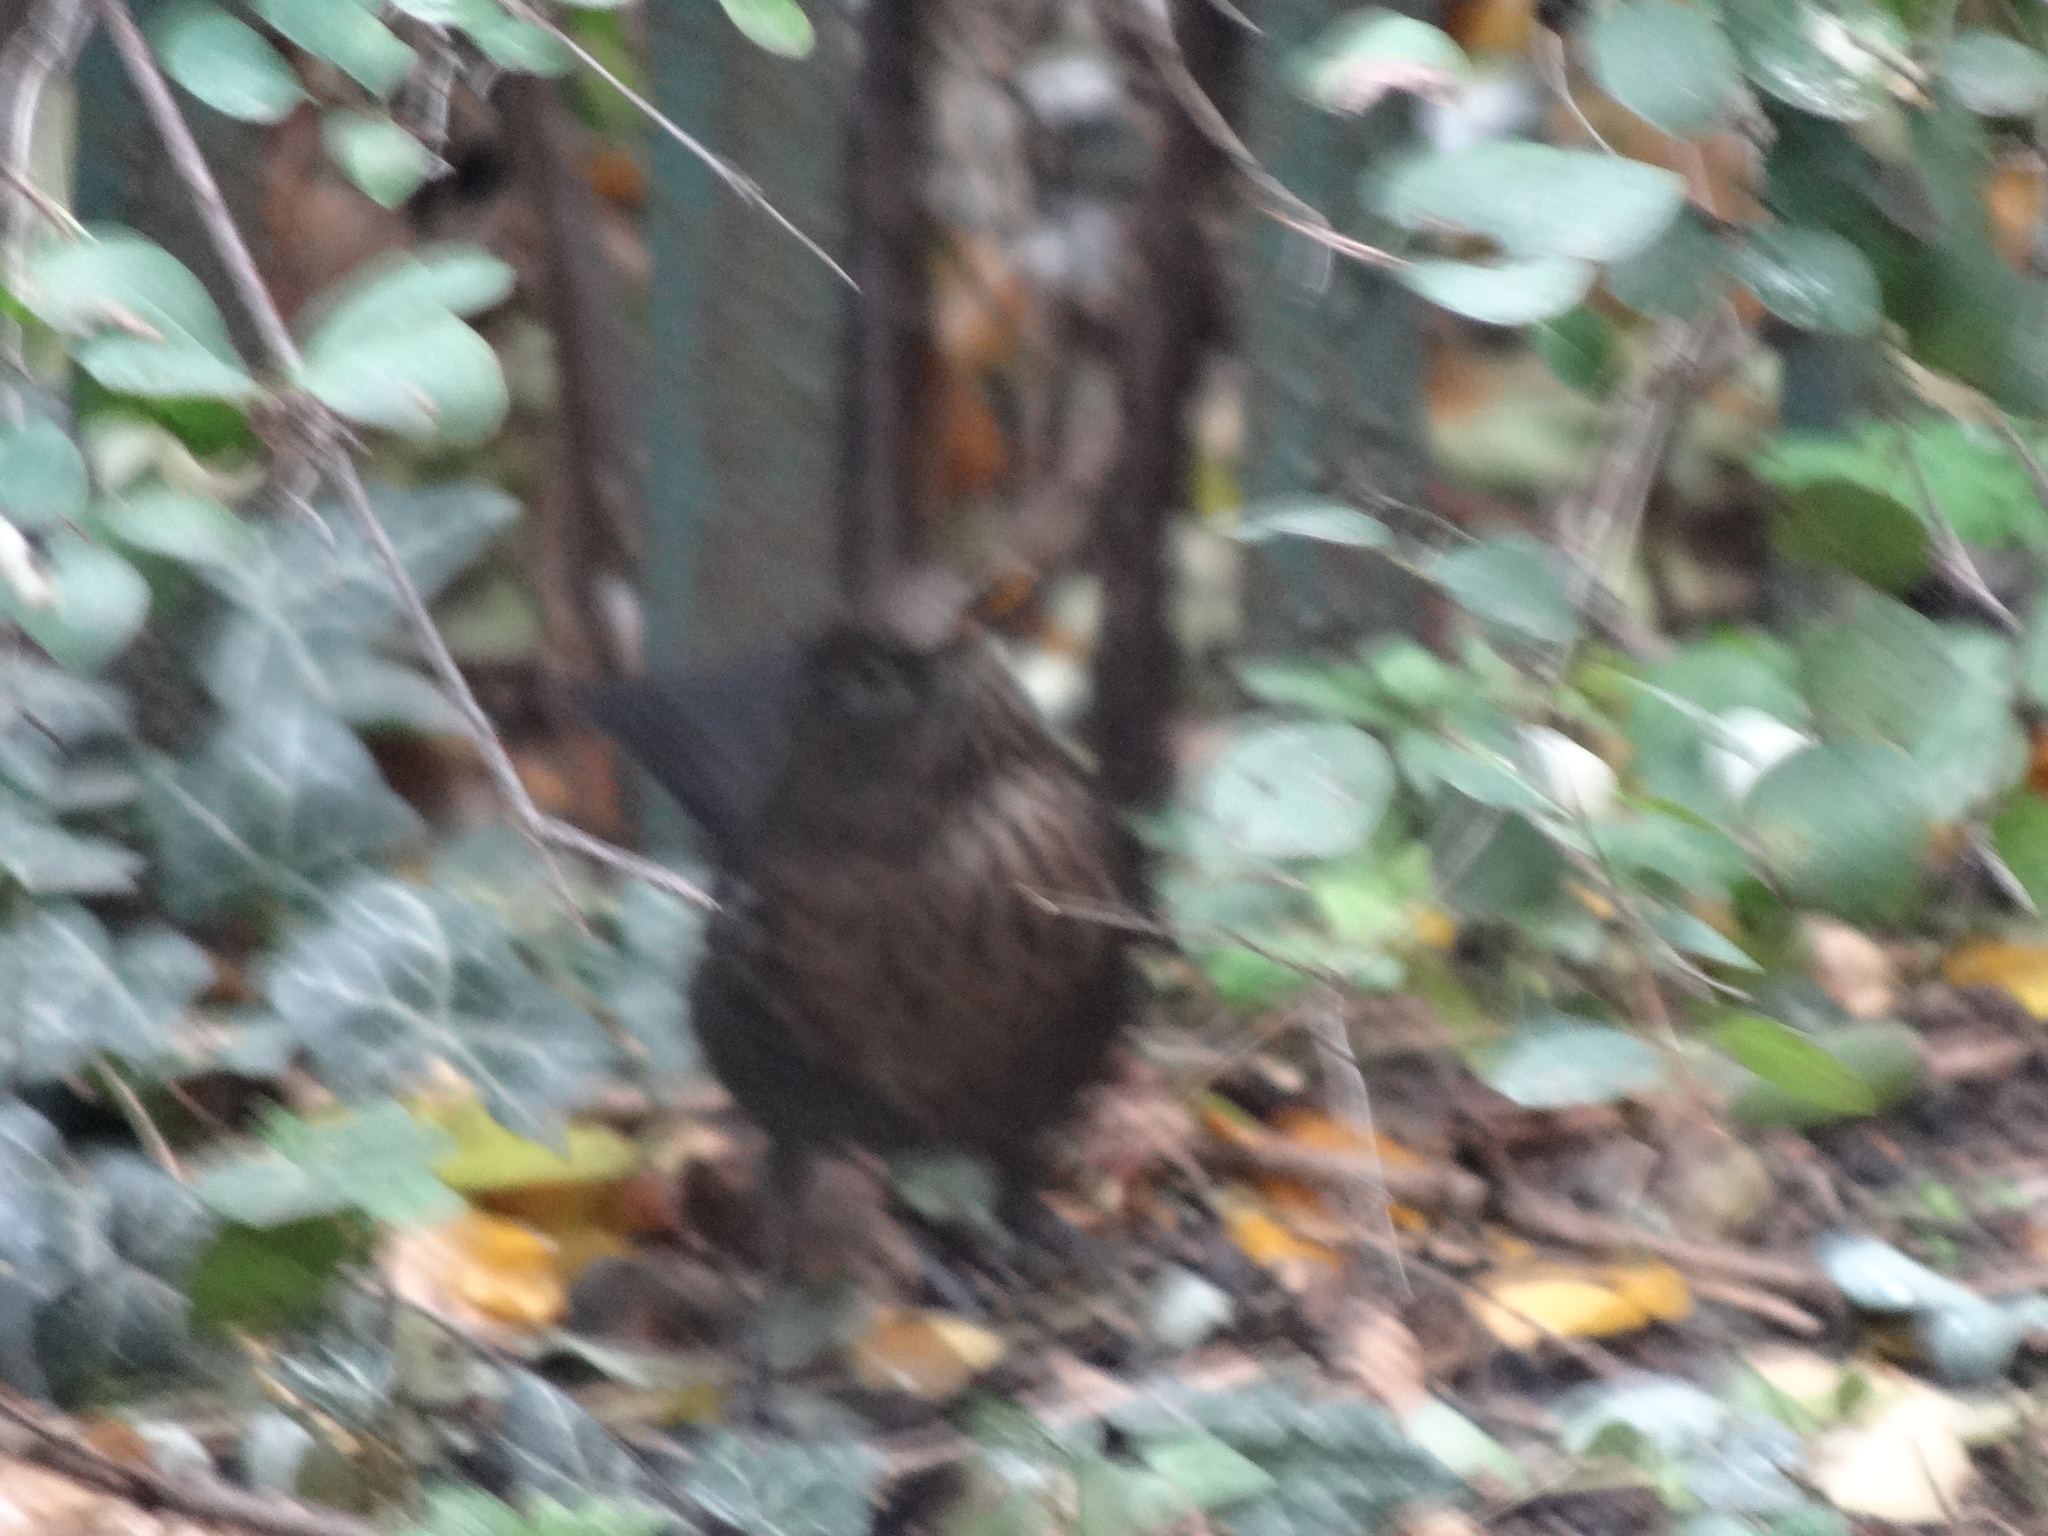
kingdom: Animalia
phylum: Chordata
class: Aves
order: Passeriformes
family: Turdidae
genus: Turdus
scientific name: Turdus merula
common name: Common blackbird
